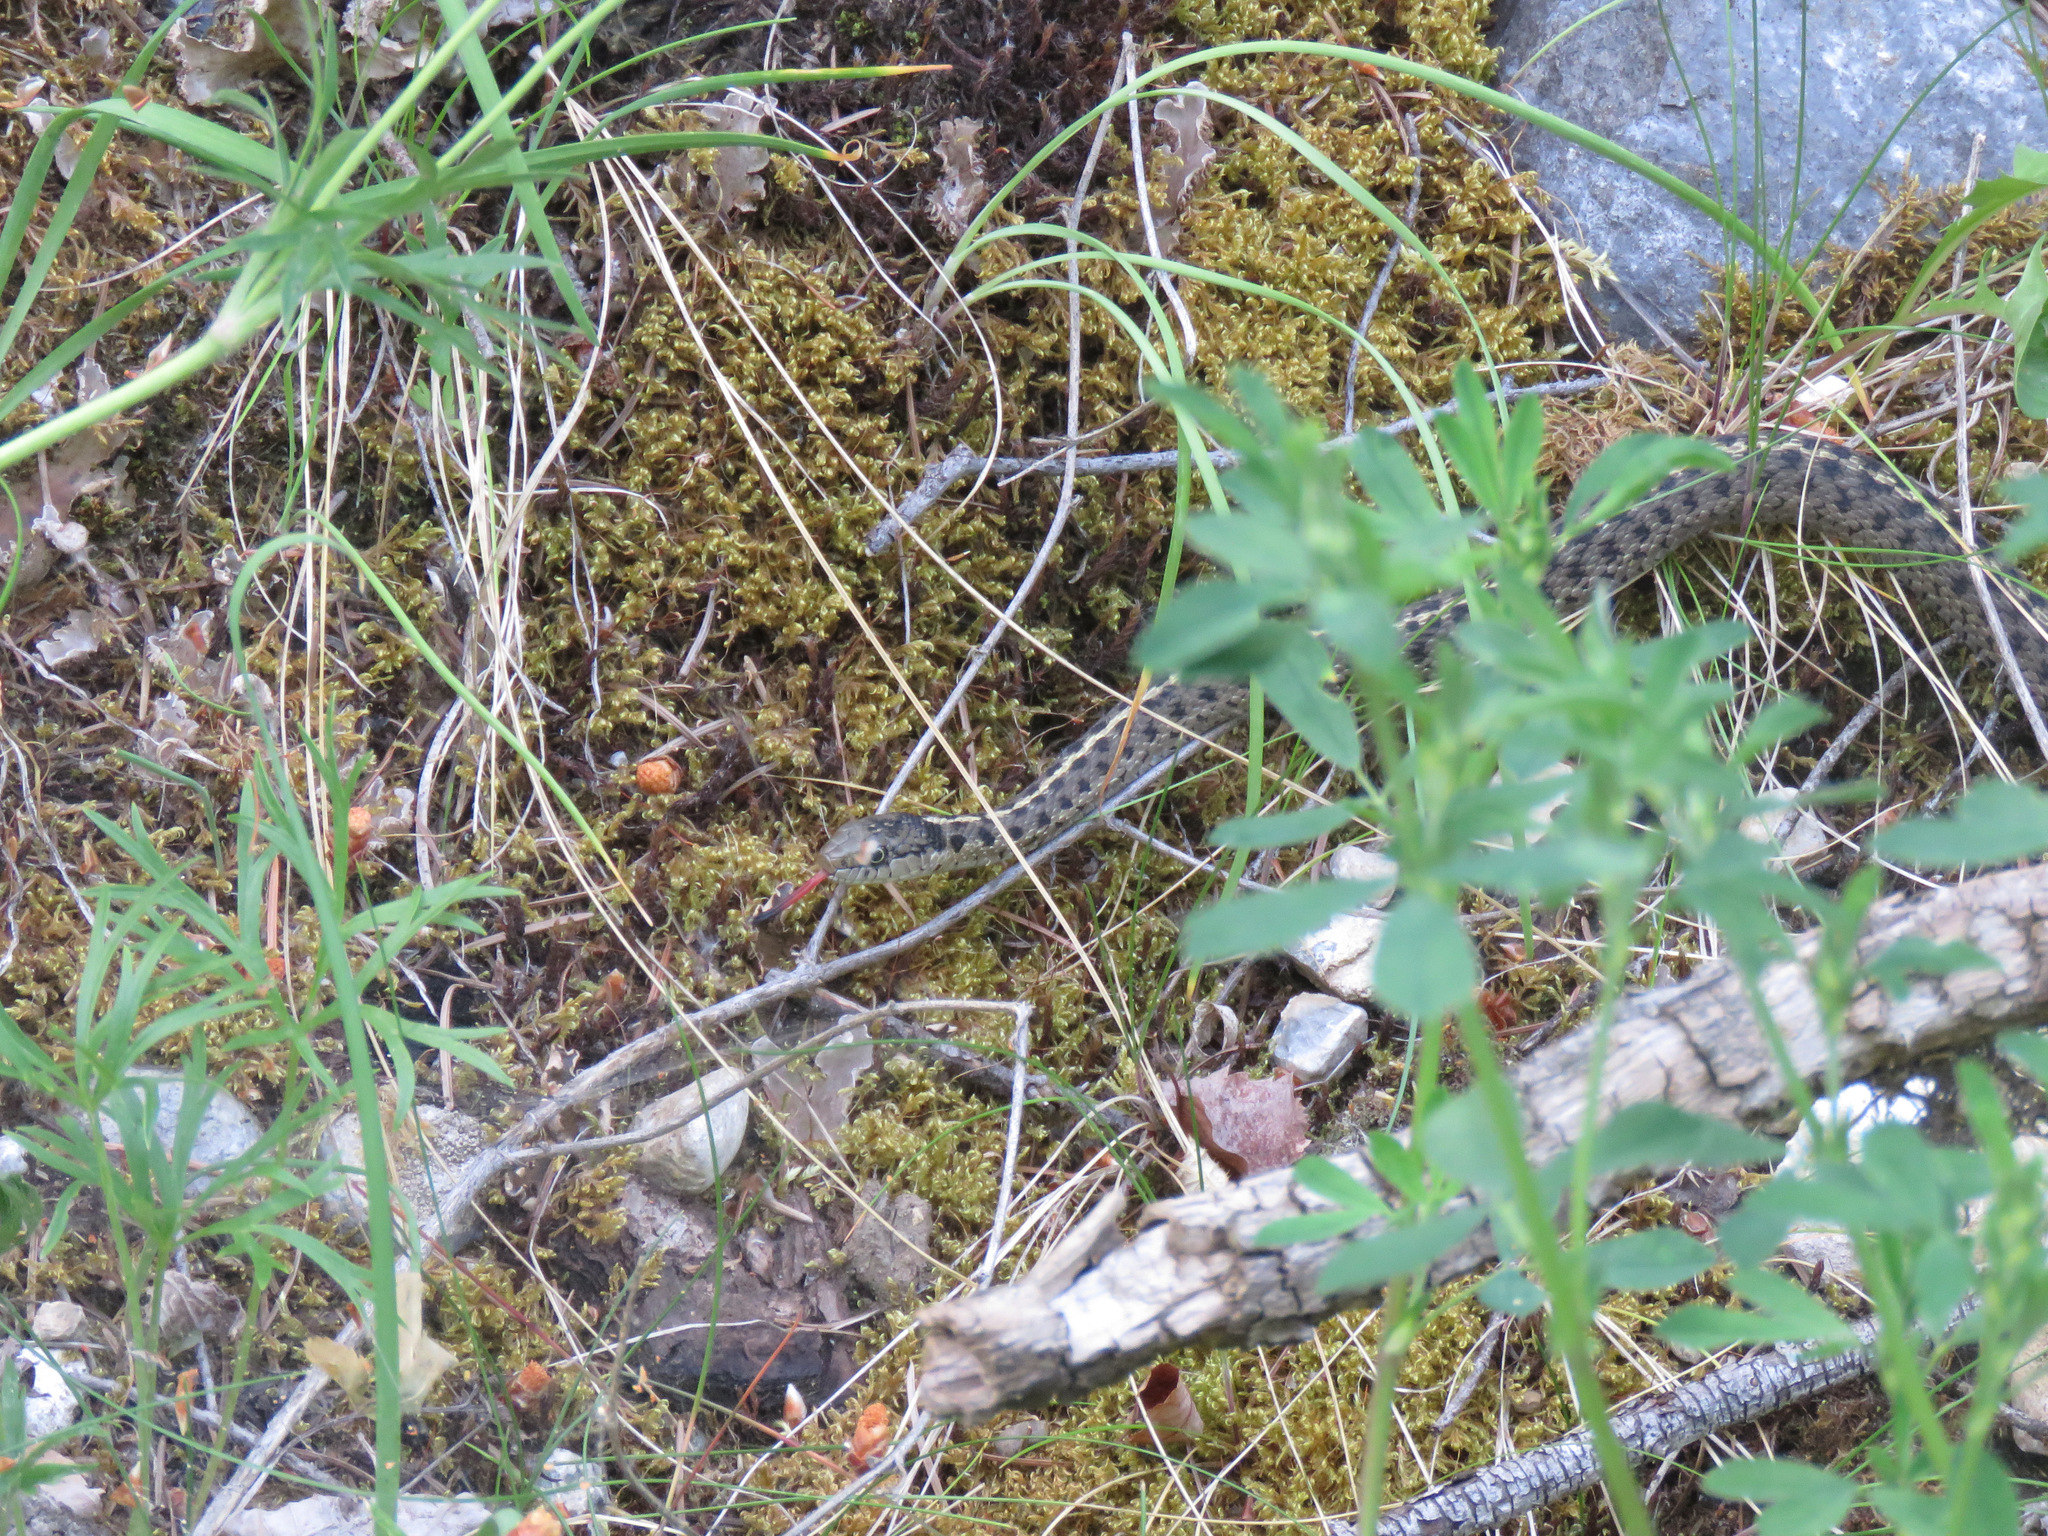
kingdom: Animalia
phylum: Chordata
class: Squamata
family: Colubridae
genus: Thamnophis
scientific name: Thamnophis elegans
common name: Western terrestrial garter snake
